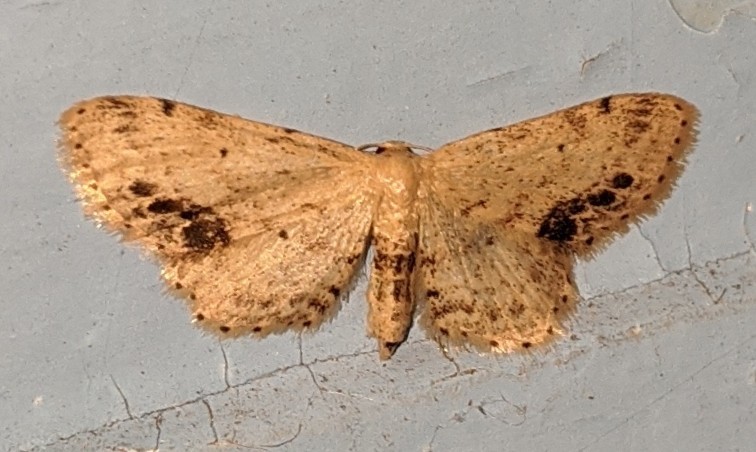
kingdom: Animalia
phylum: Arthropoda
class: Insecta
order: Lepidoptera
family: Geometridae
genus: Idaea
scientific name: Idaea dimidiata
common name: Single-dotted wave
